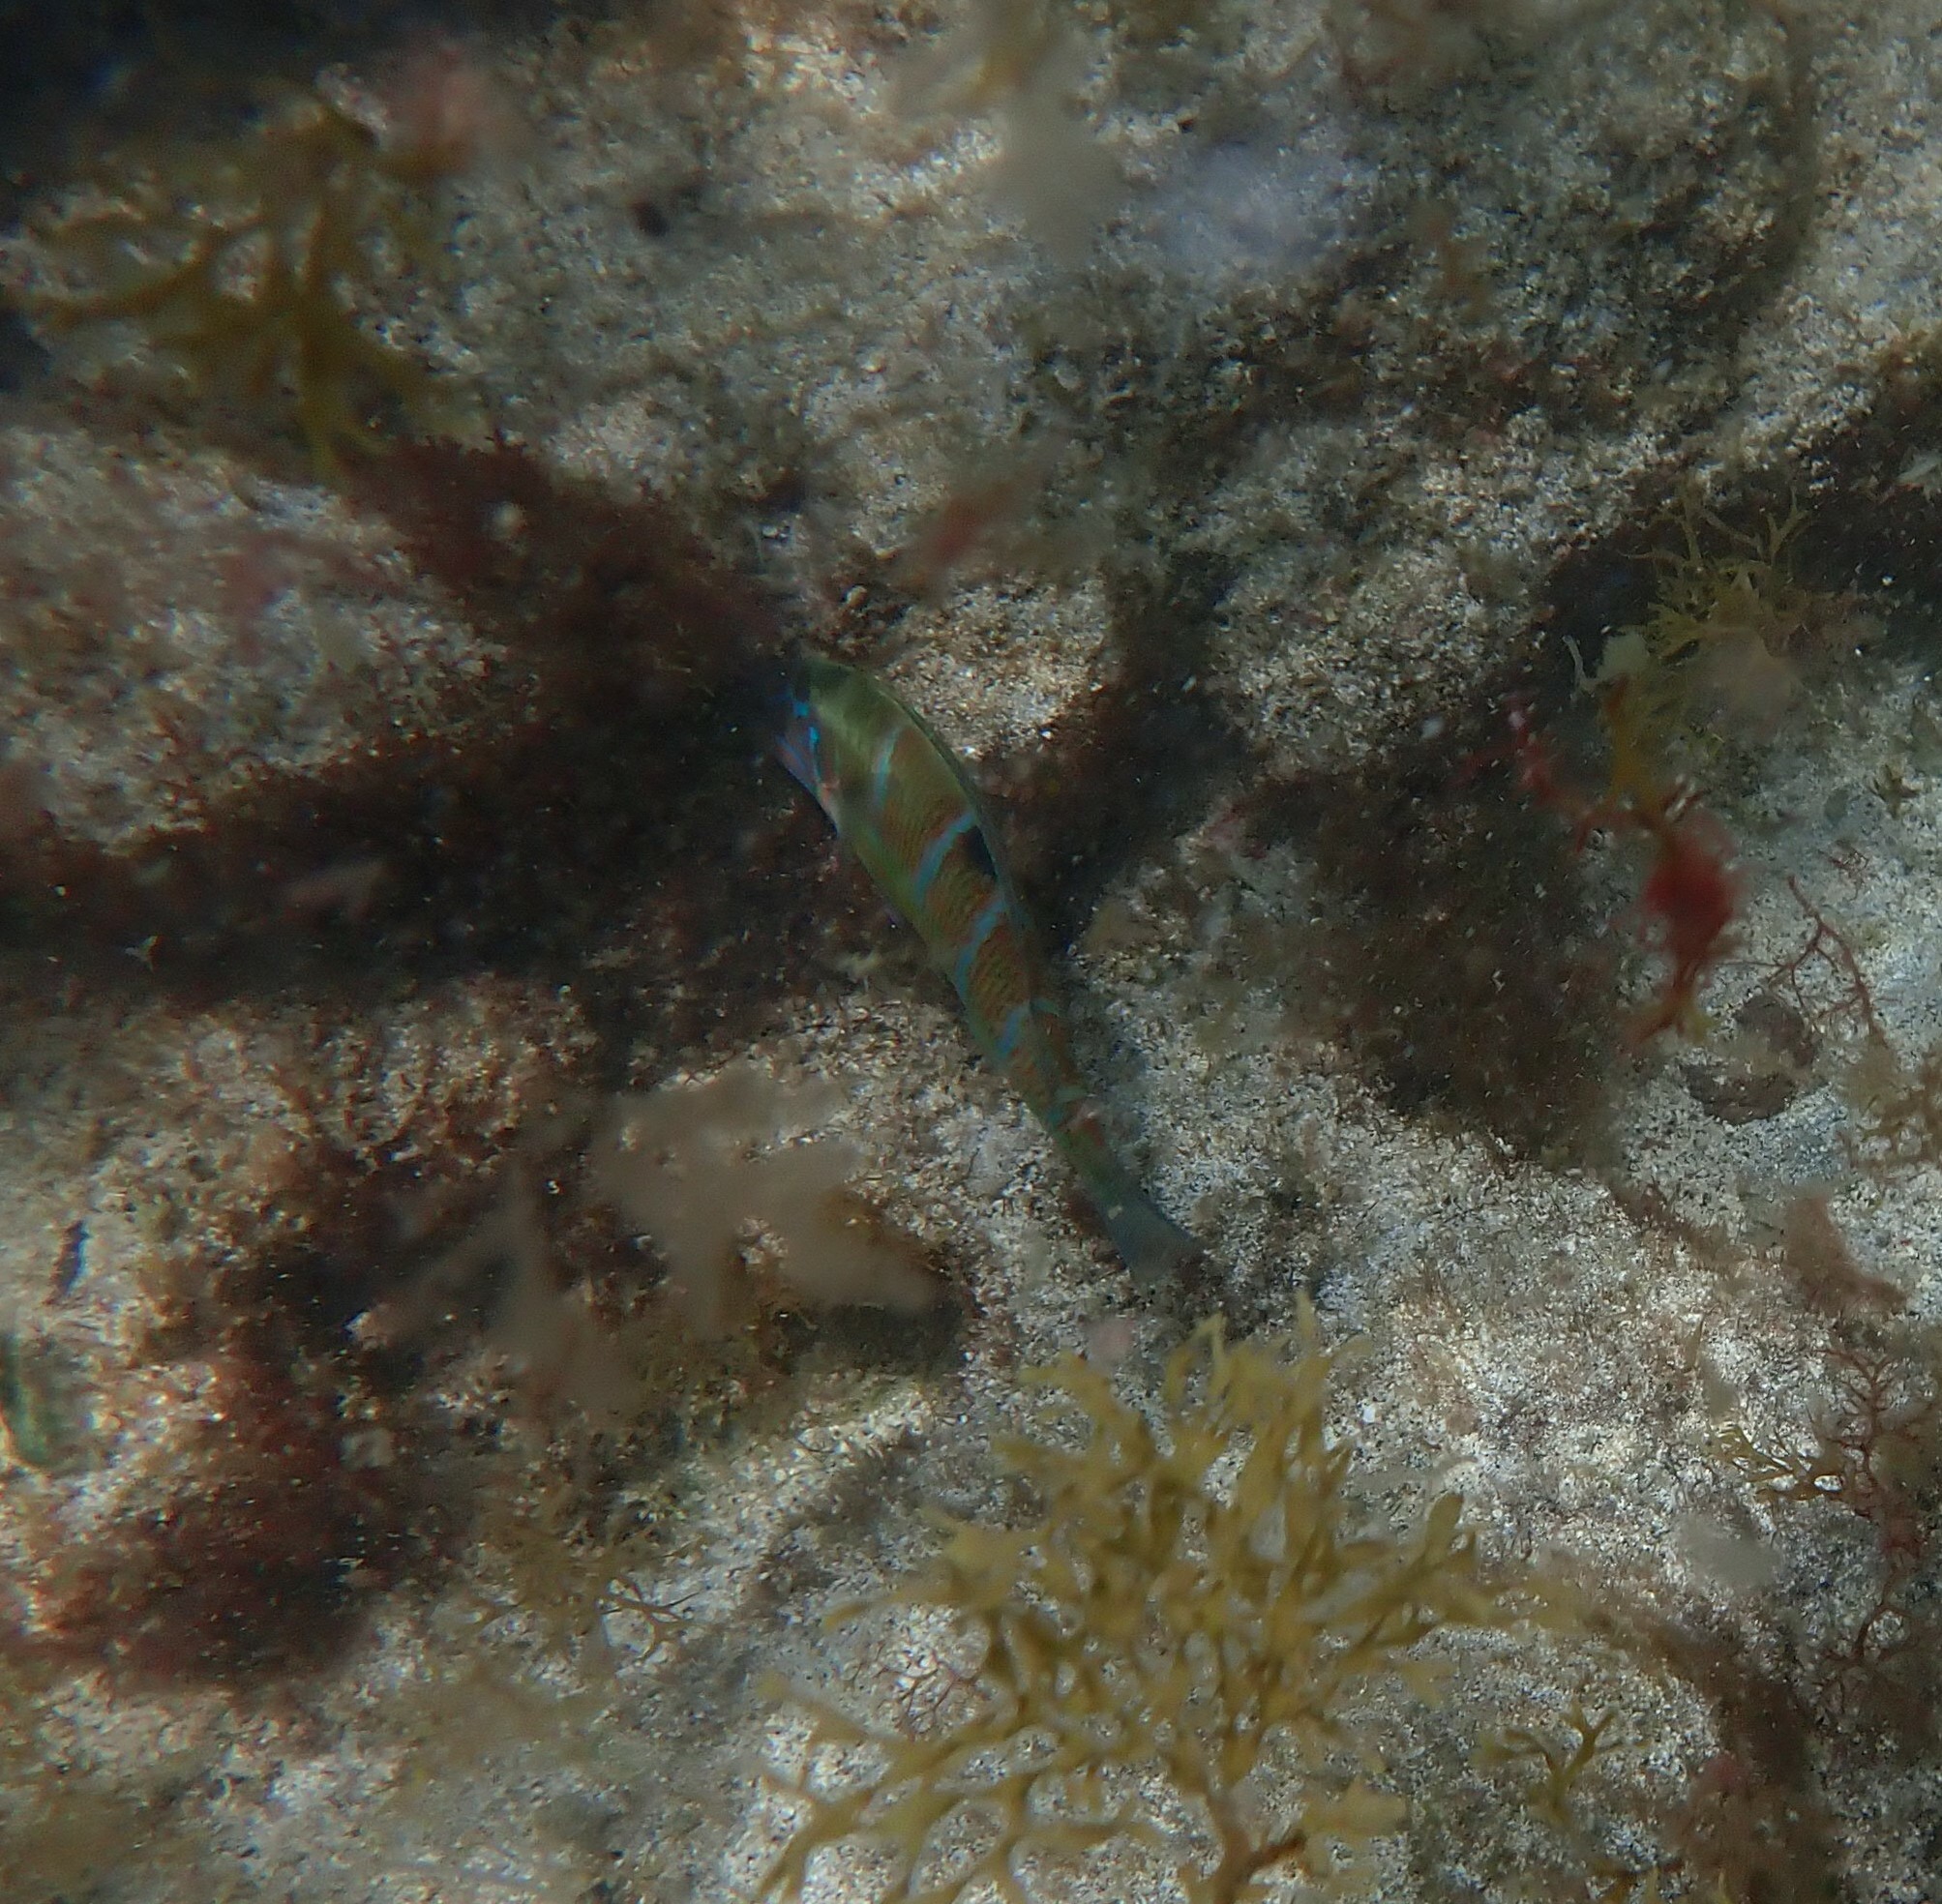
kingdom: Animalia
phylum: Chordata
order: Perciformes
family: Labridae
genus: Thalassoma
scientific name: Thalassoma pavo
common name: Ornate wrasse
